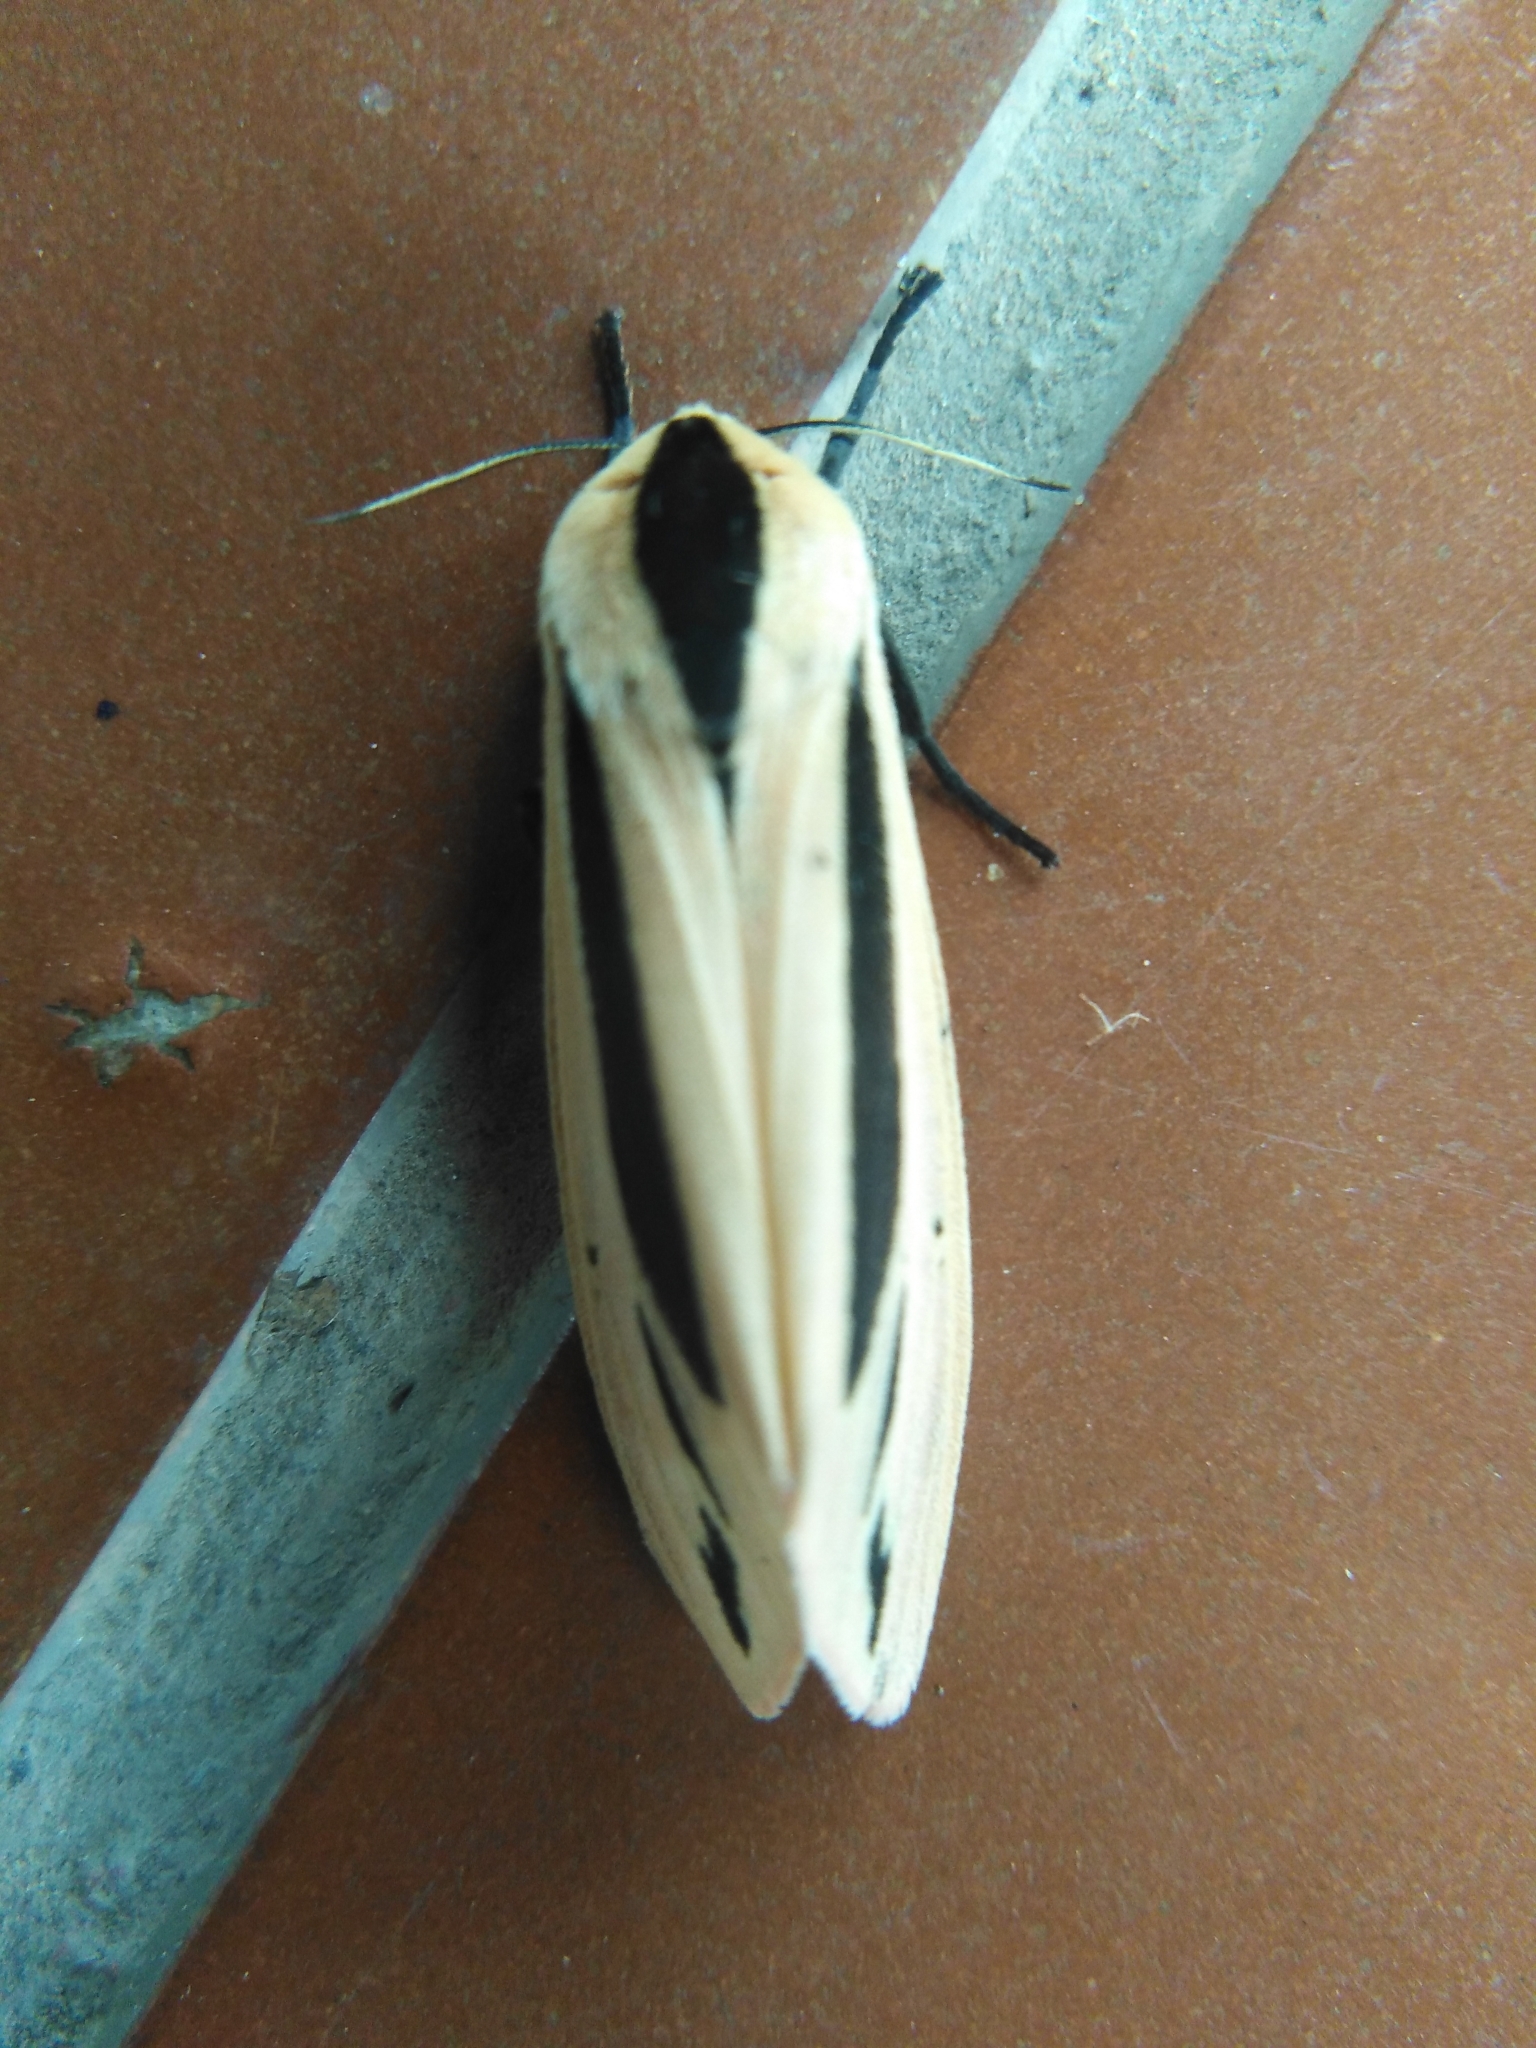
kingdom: Animalia
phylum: Arthropoda
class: Insecta
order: Lepidoptera
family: Erebidae
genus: Creatonotos
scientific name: Creatonotos gangis
